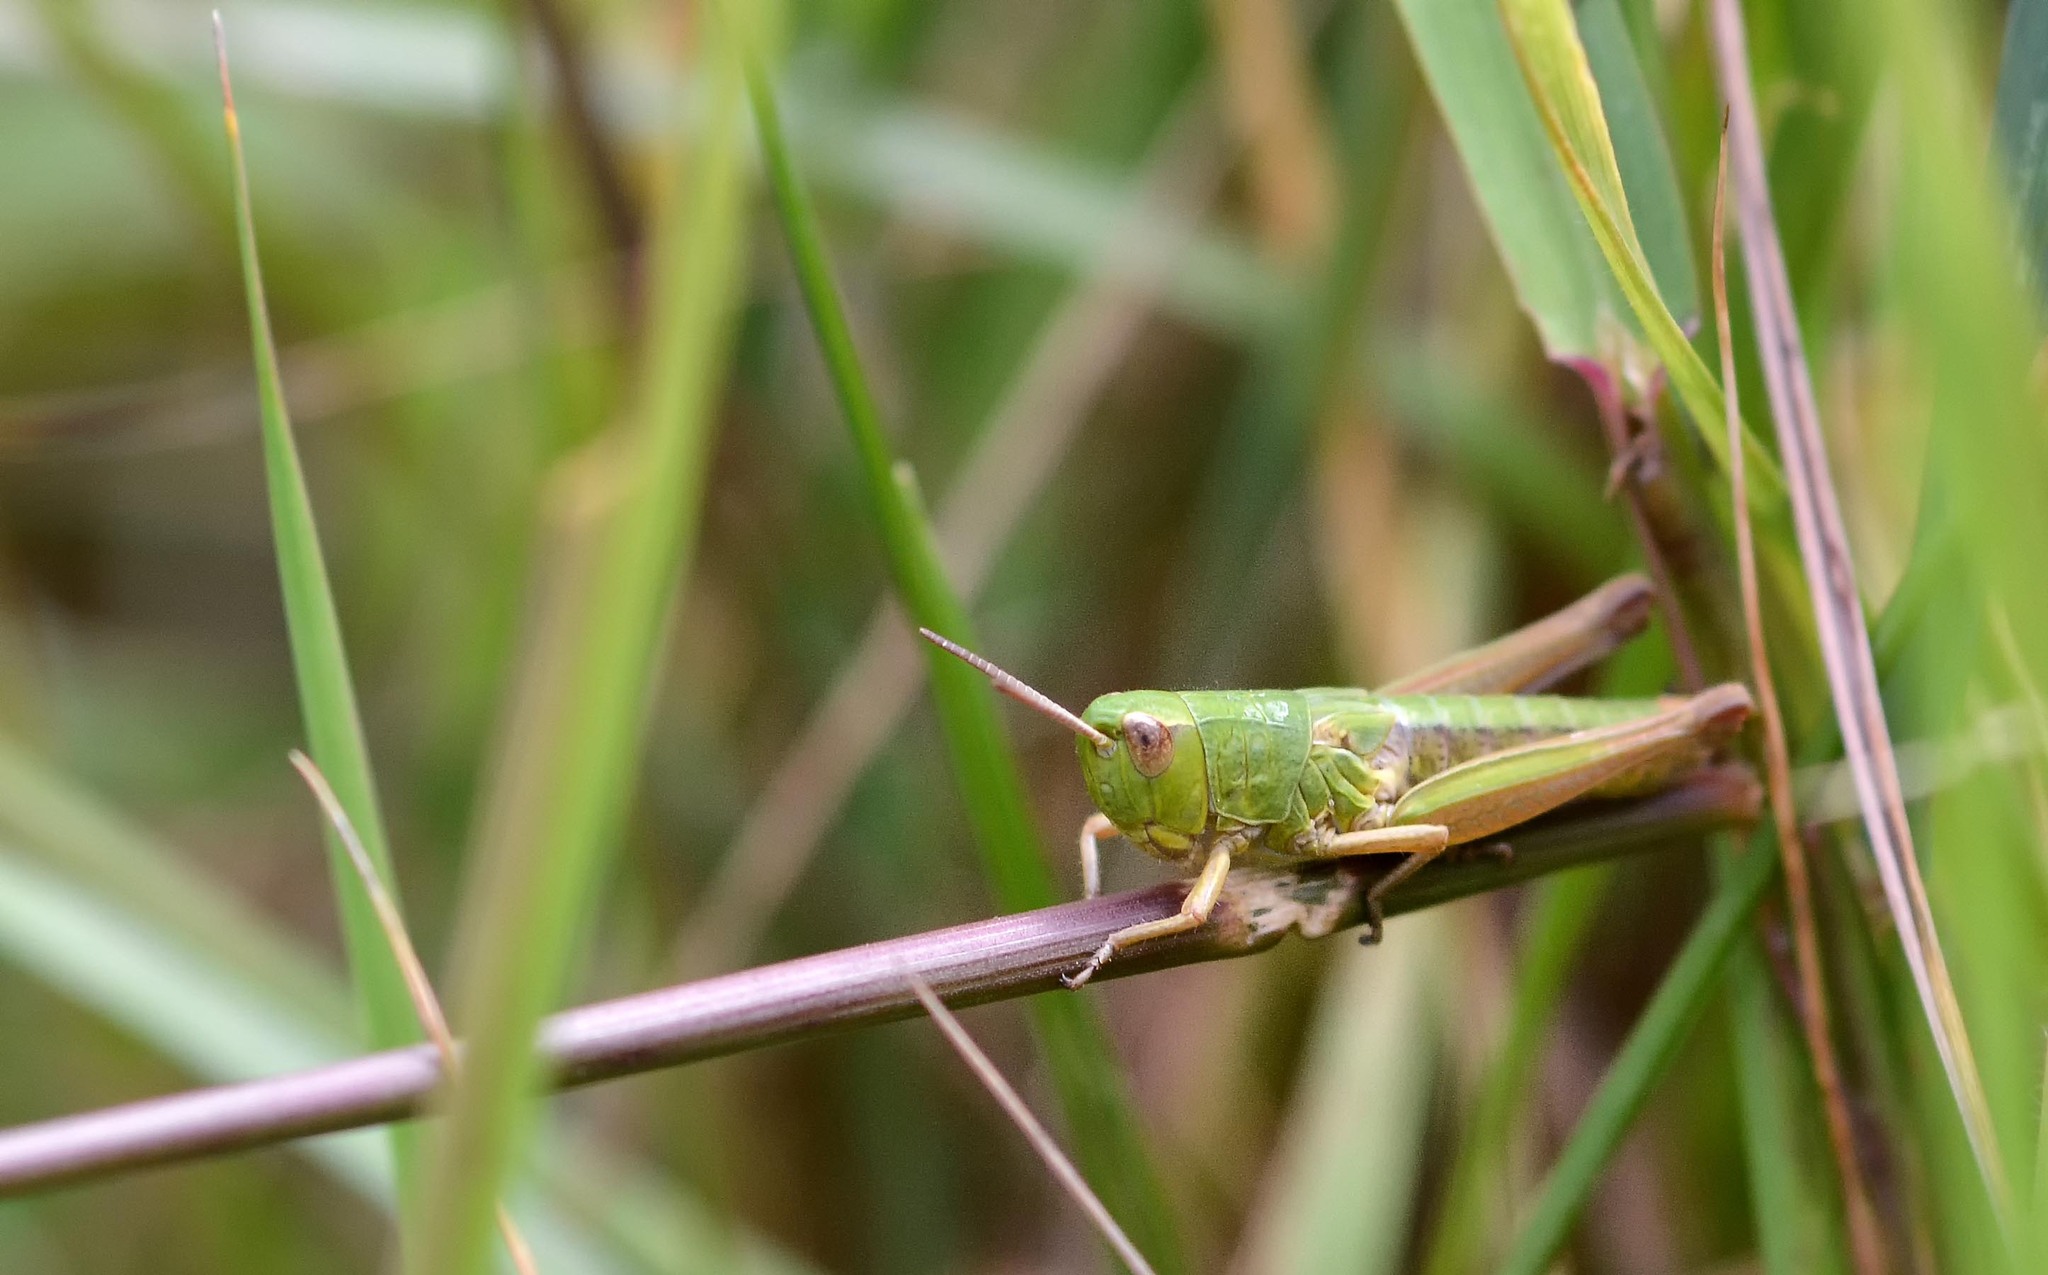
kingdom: Animalia
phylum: Arthropoda
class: Insecta
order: Orthoptera
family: Acrididae
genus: Pseudochorthippus
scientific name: Pseudochorthippus parallelus
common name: Meadow grasshopper
